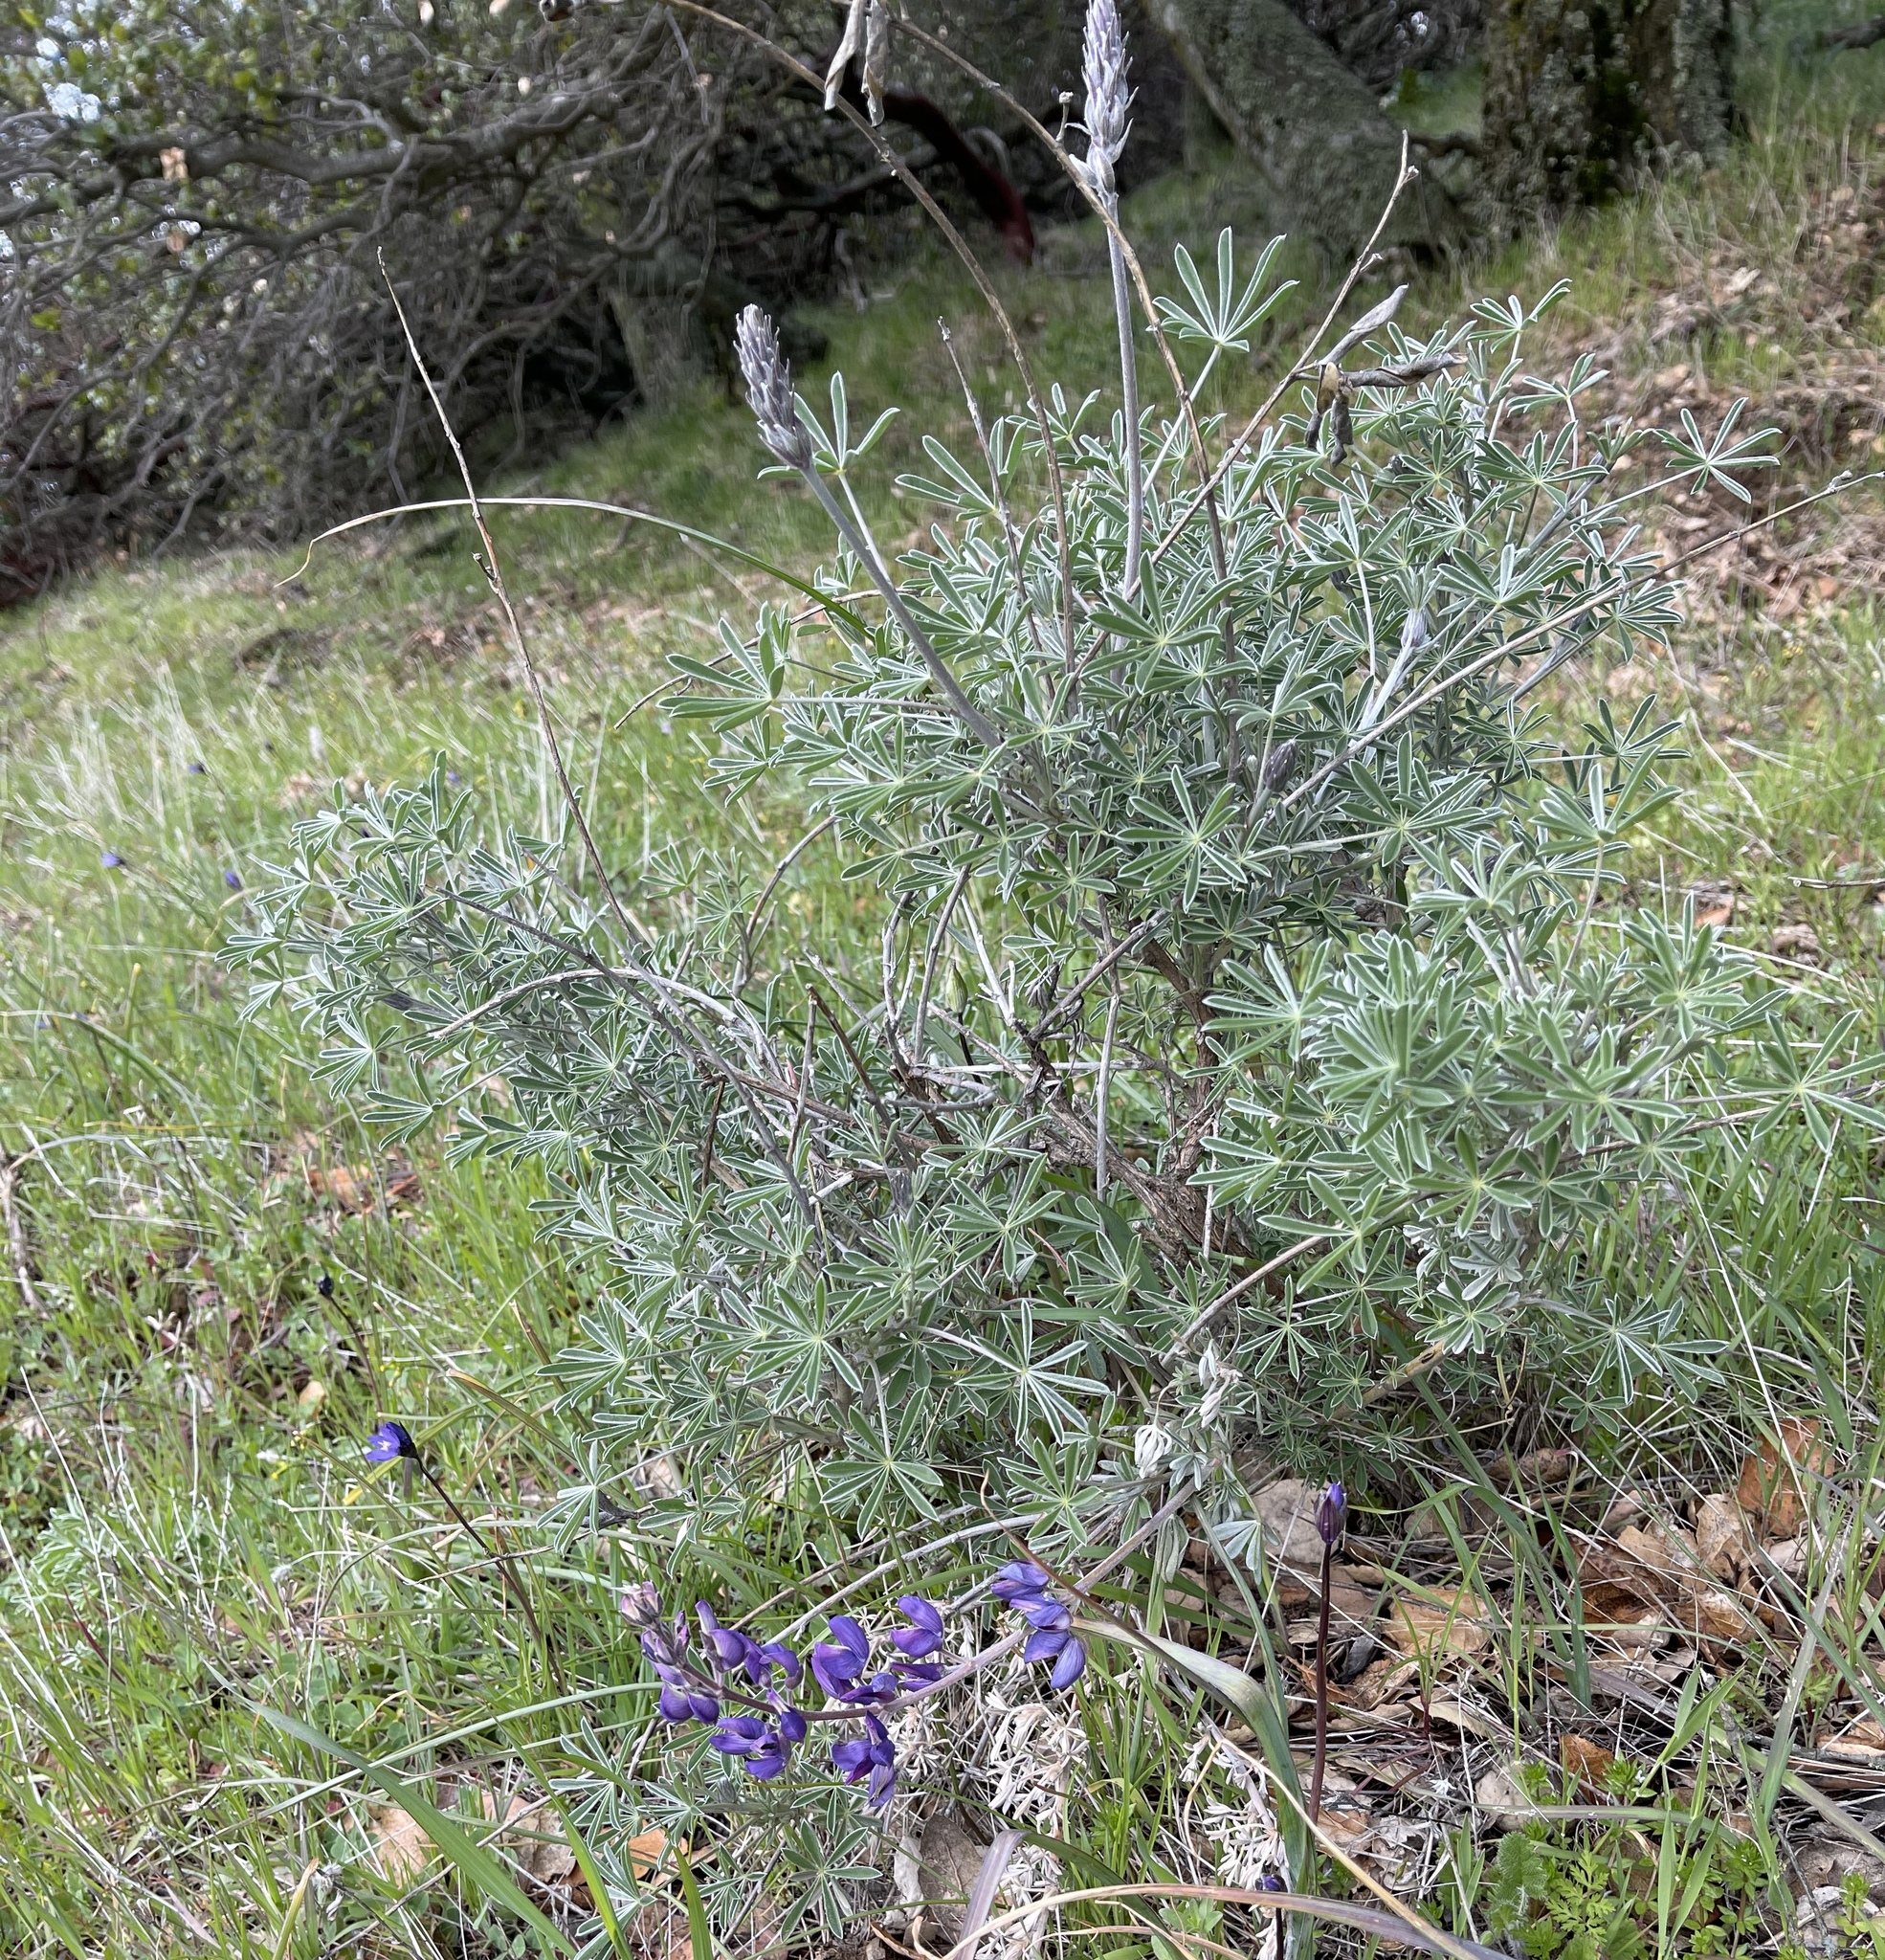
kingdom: Plantae
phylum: Tracheophyta
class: Magnoliopsida
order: Fabales
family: Fabaceae
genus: Lupinus
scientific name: Lupinus albifrons
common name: Foothill lupine
